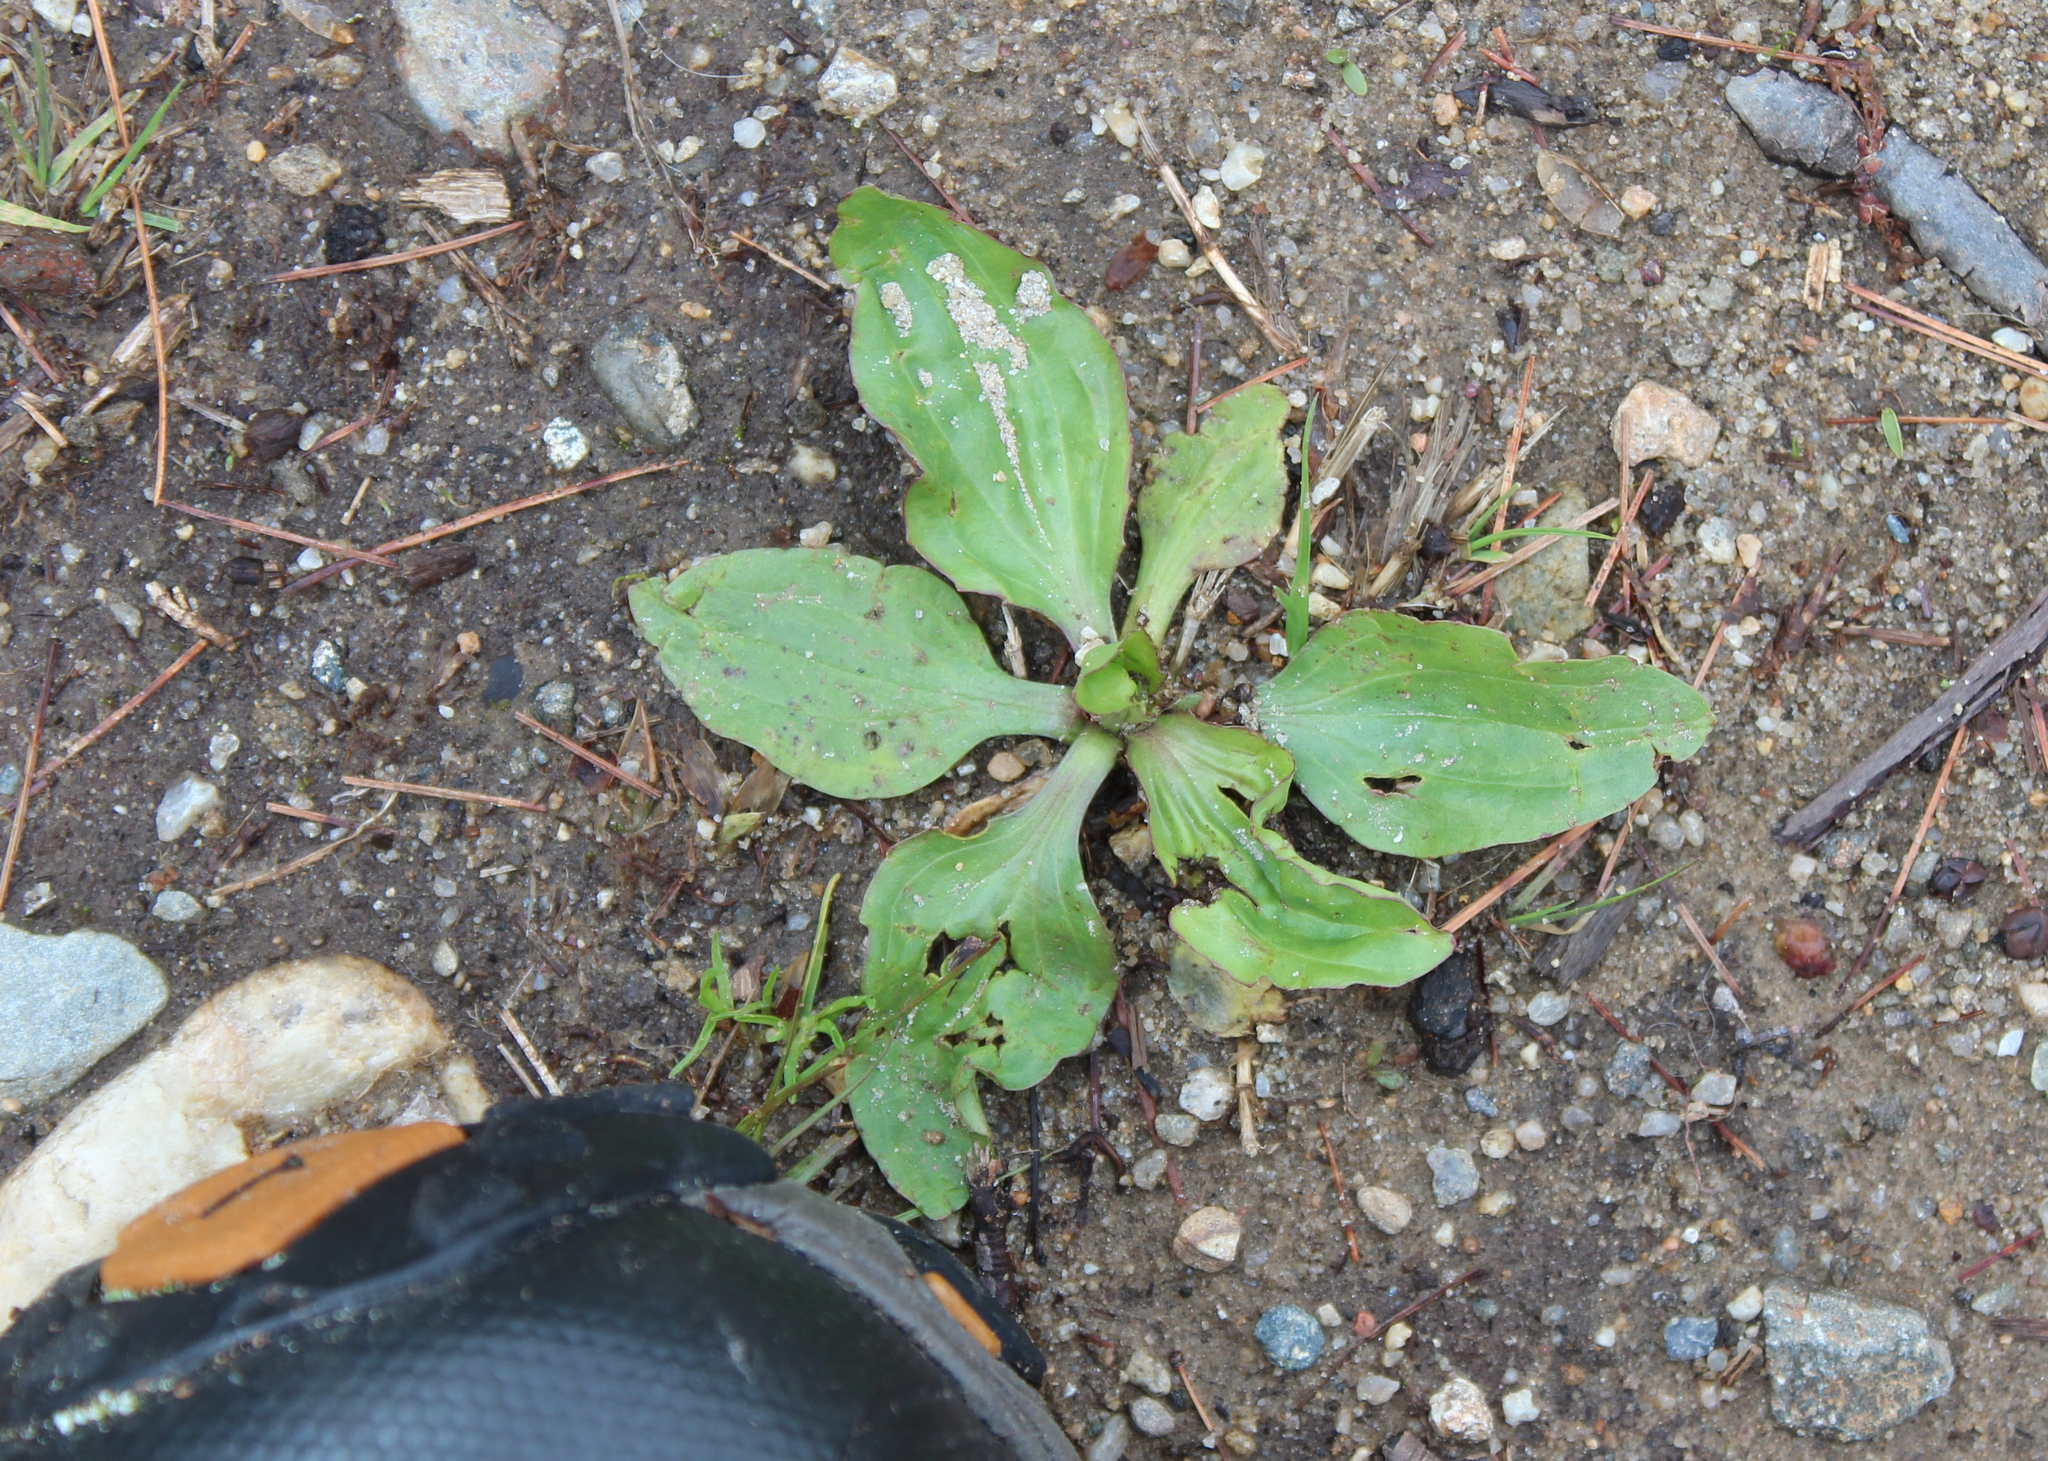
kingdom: Plantae
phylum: Tracheophyta
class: Magnoliopsida
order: Lamiales
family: Plantaginaceae
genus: Plantago
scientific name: Plantago major
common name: Common plantain
